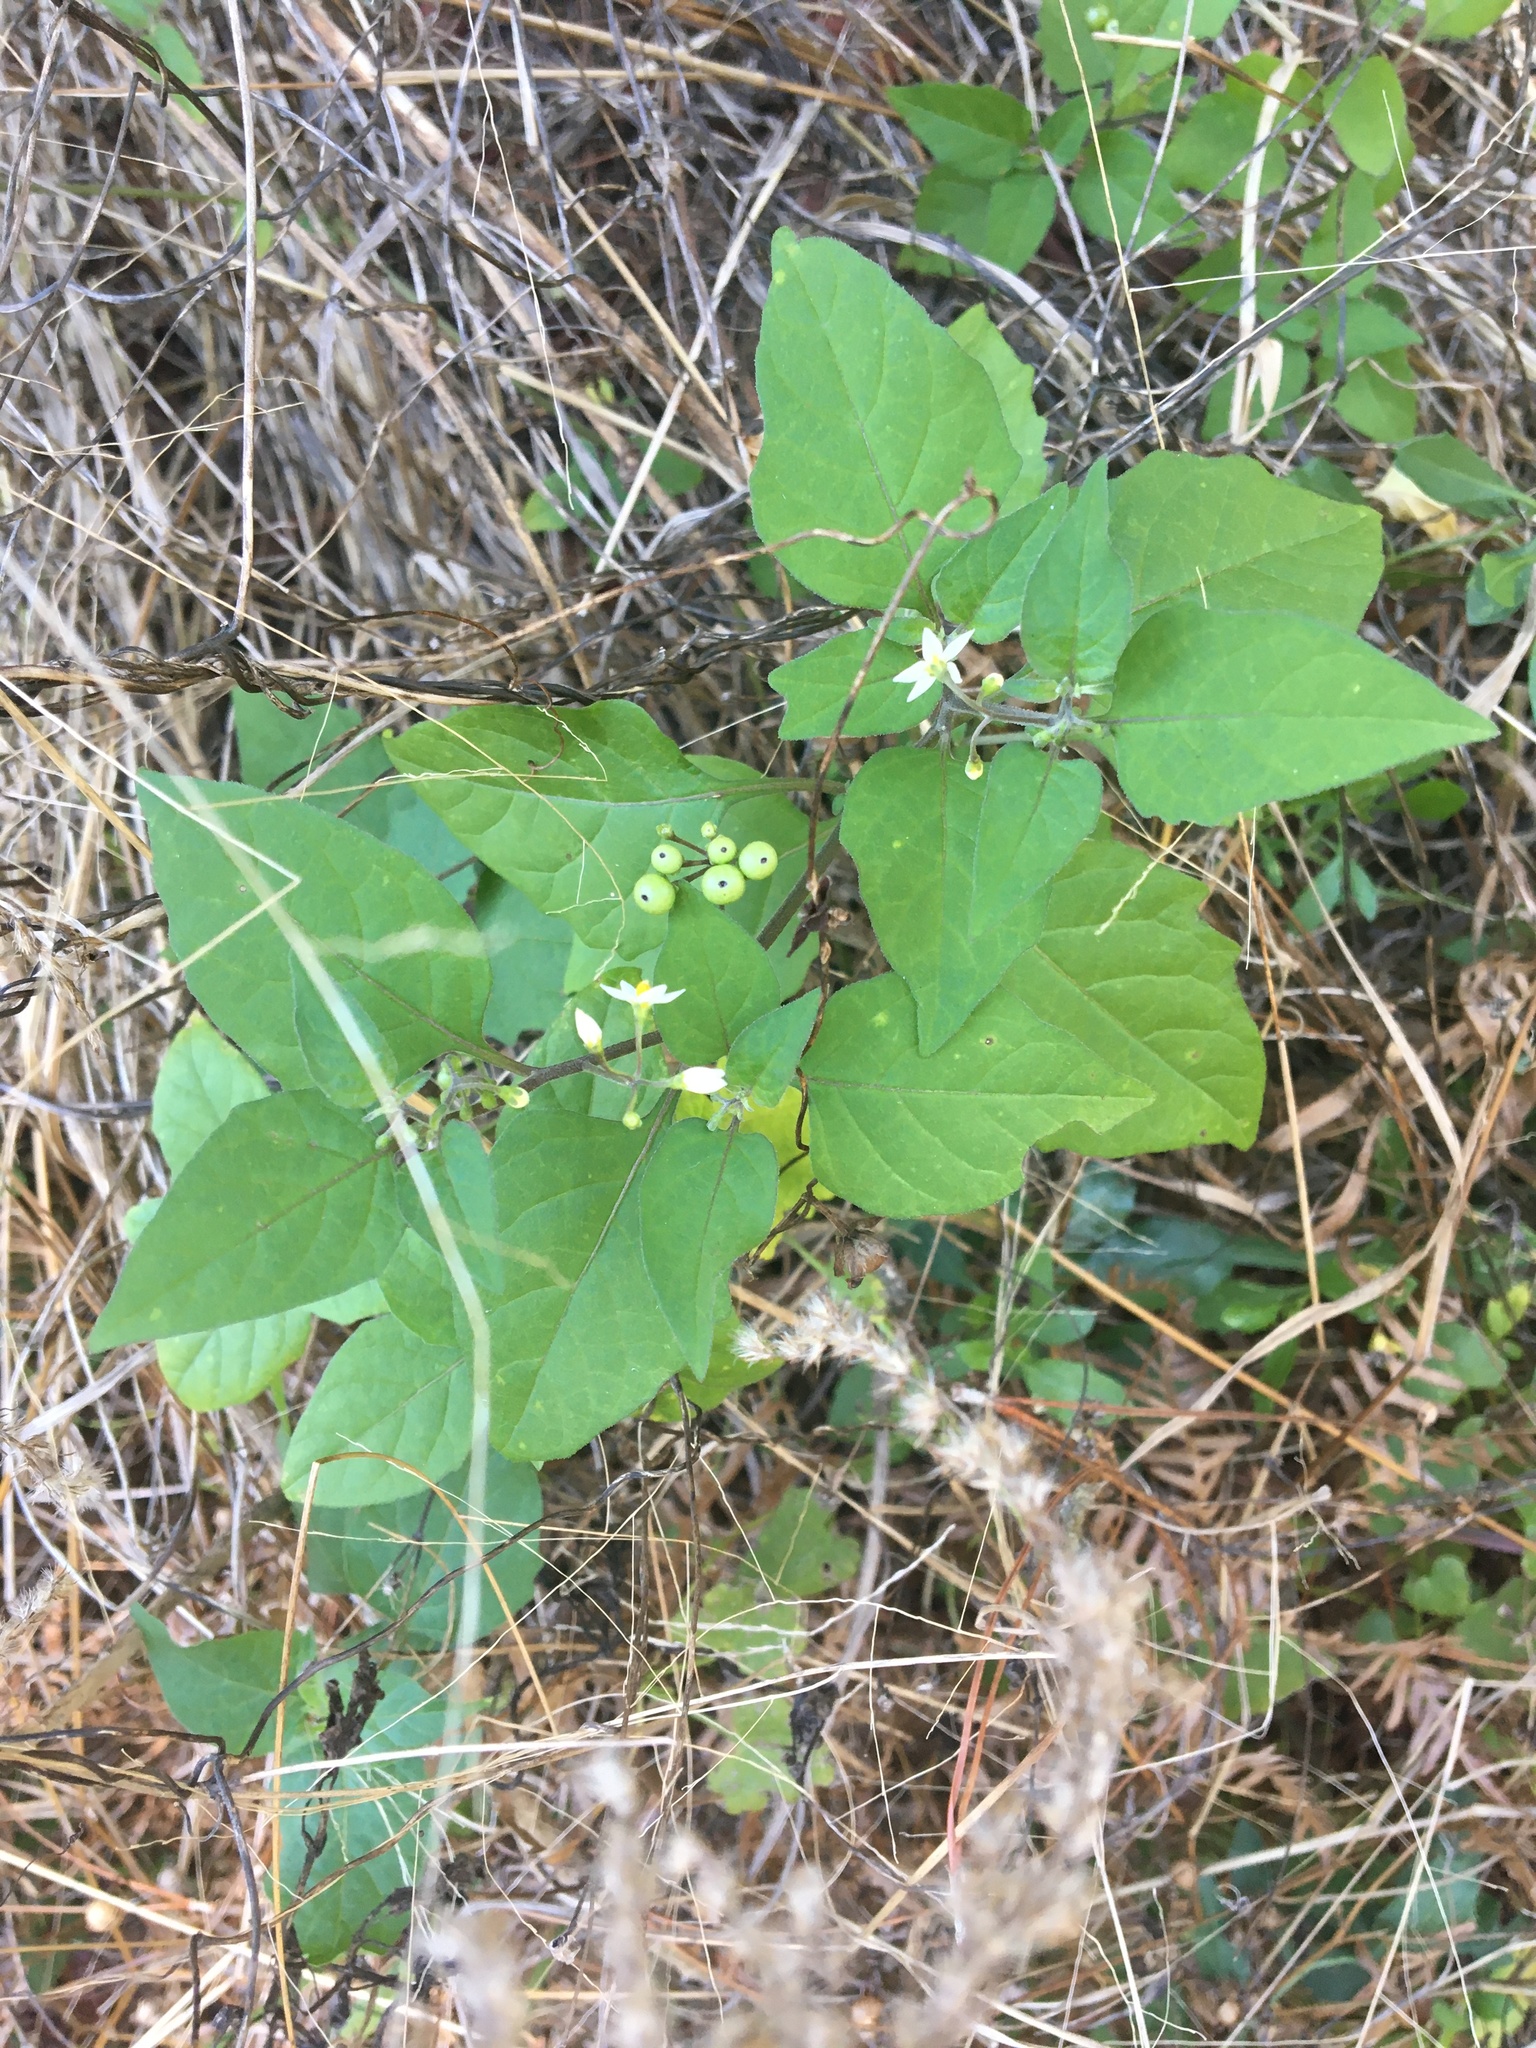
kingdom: Plantae
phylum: Tracheophyta
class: Magnoliopsida
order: Solanales
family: Solanaceae
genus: Solanum
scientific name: Solanum
